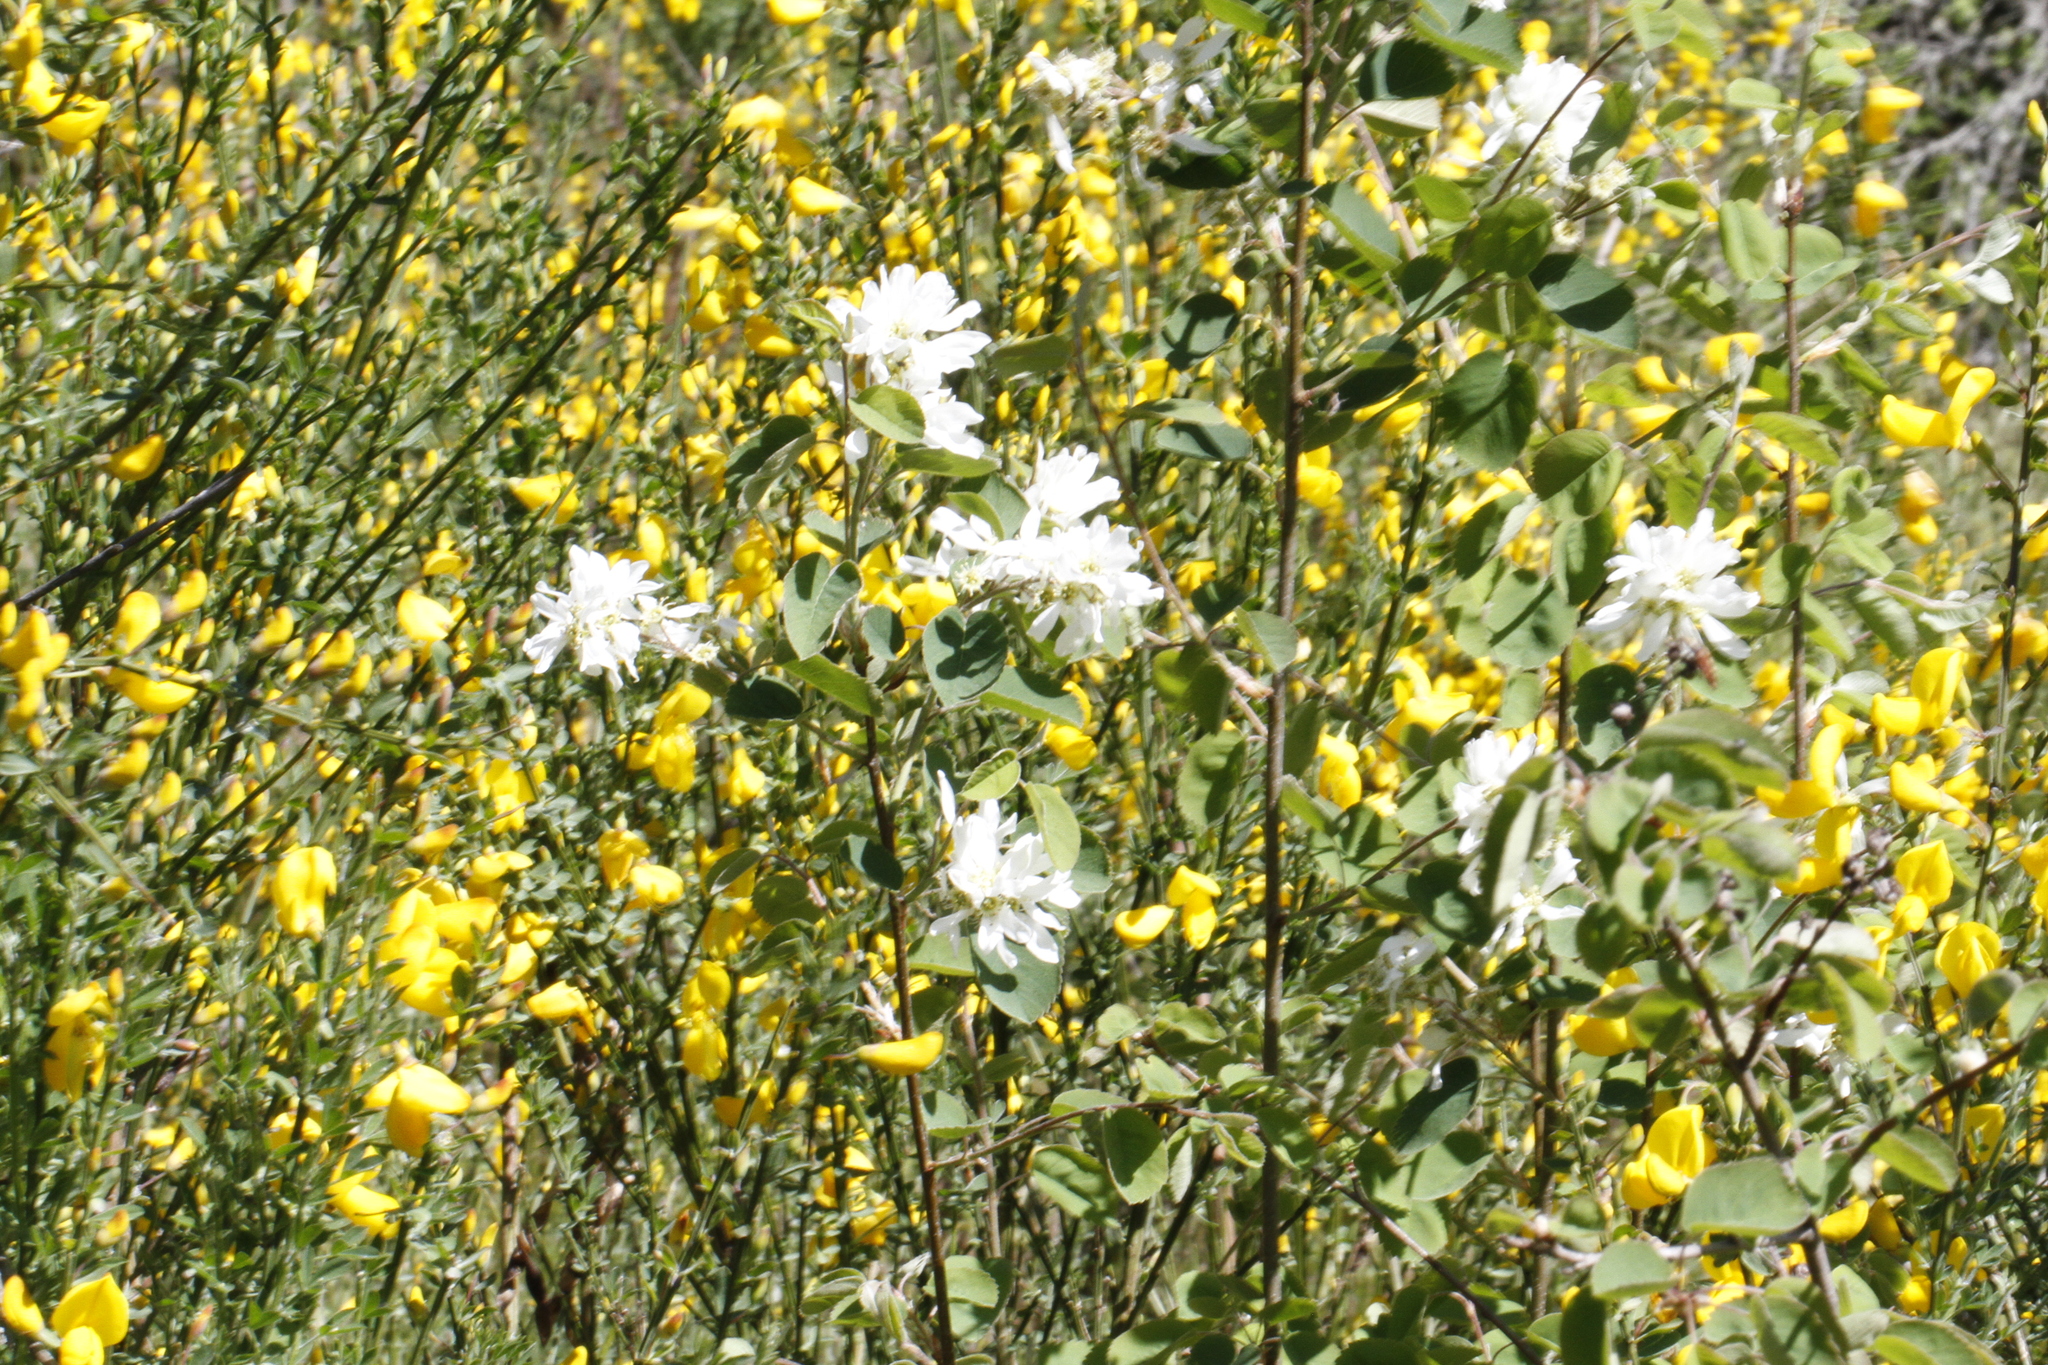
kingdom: Plantae
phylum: Tracheophyta
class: Magnoliopsida
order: Rosales
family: Rosaceae
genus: Amelanchier
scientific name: Amelanchier alnifolia
